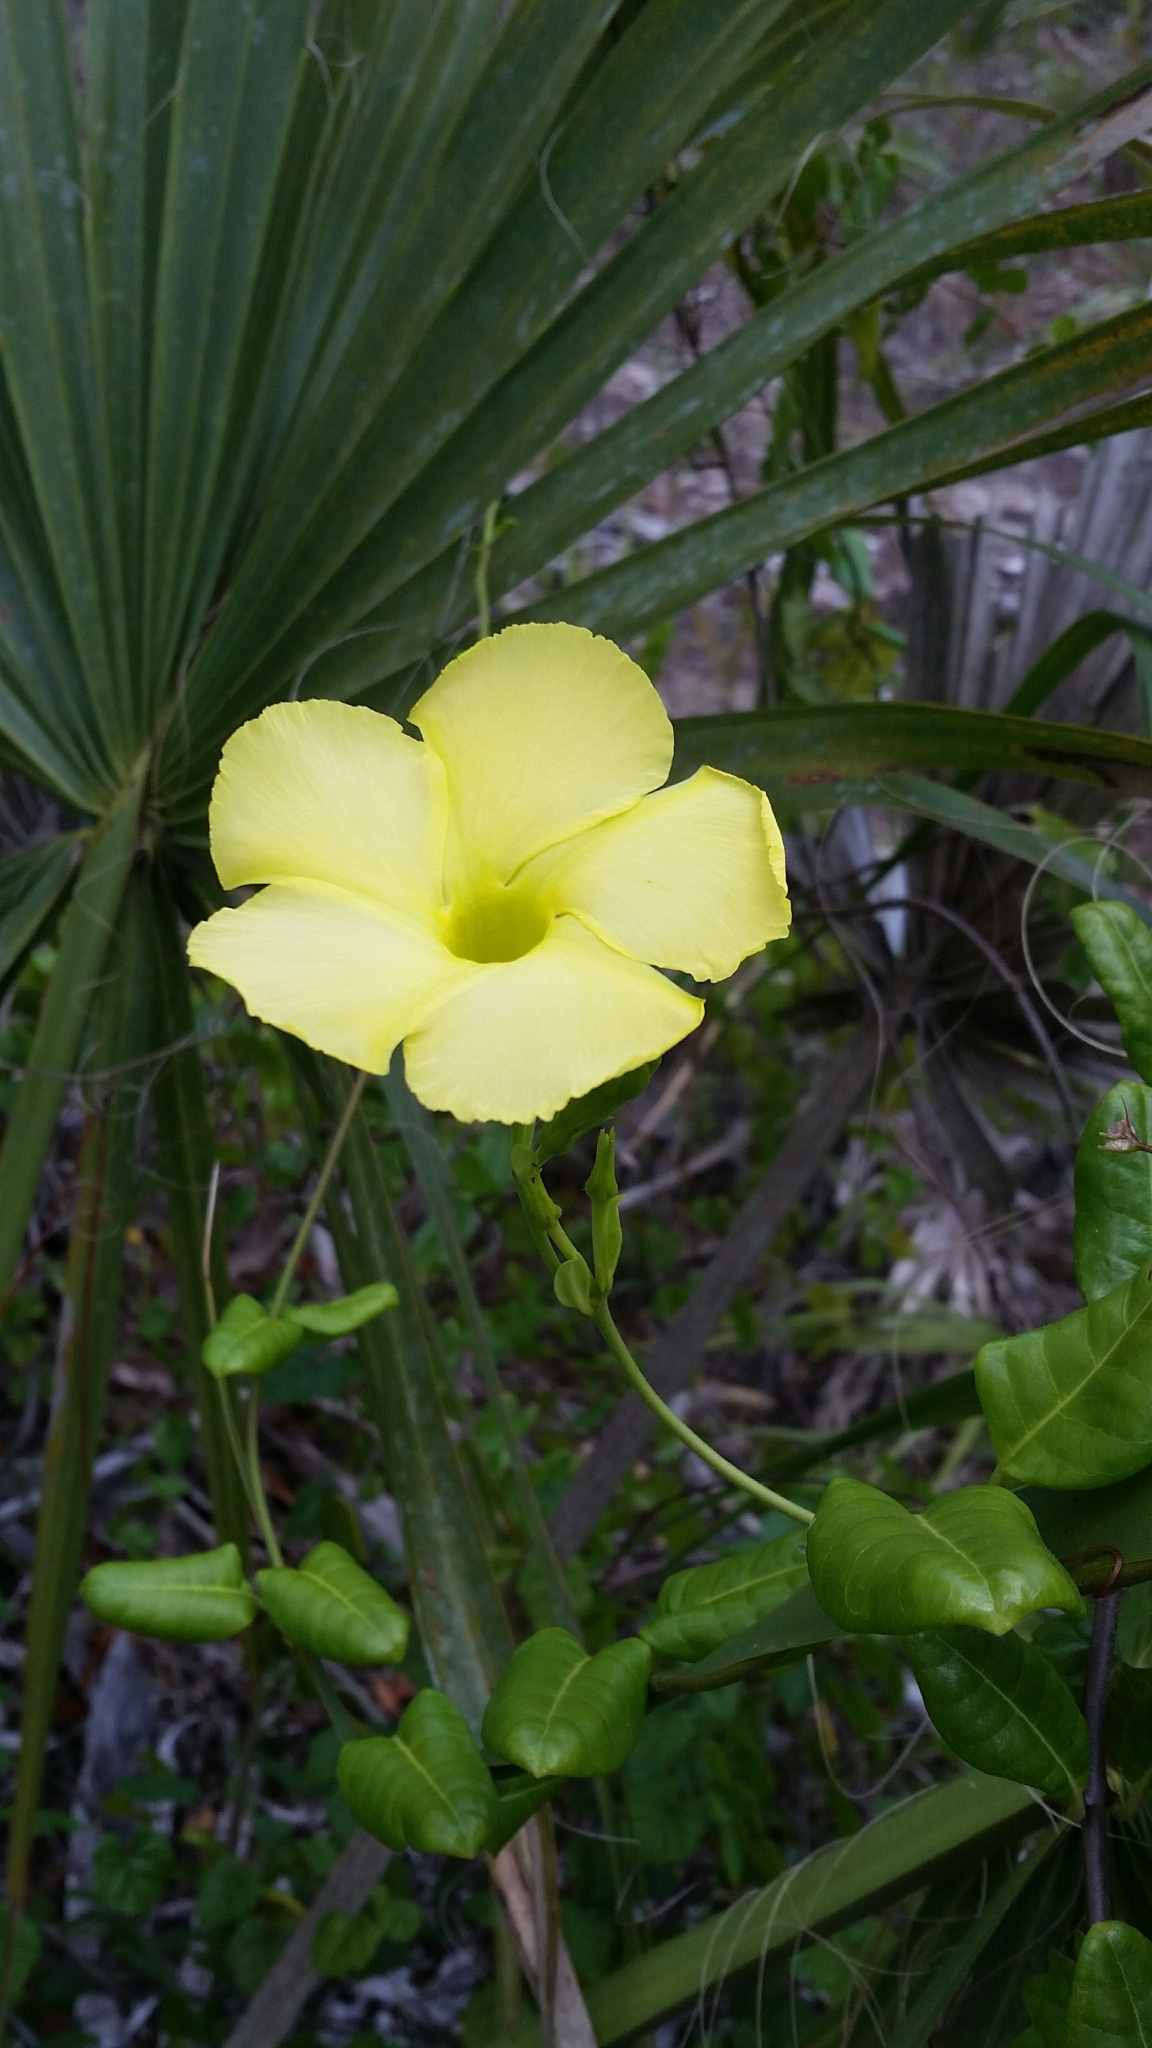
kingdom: Plantae
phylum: Tracheophyta
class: Magnoliopsida
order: Gentianales
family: Apocynaceae
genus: Pentalinon
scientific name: Pentalinon luteum
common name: Licebush
